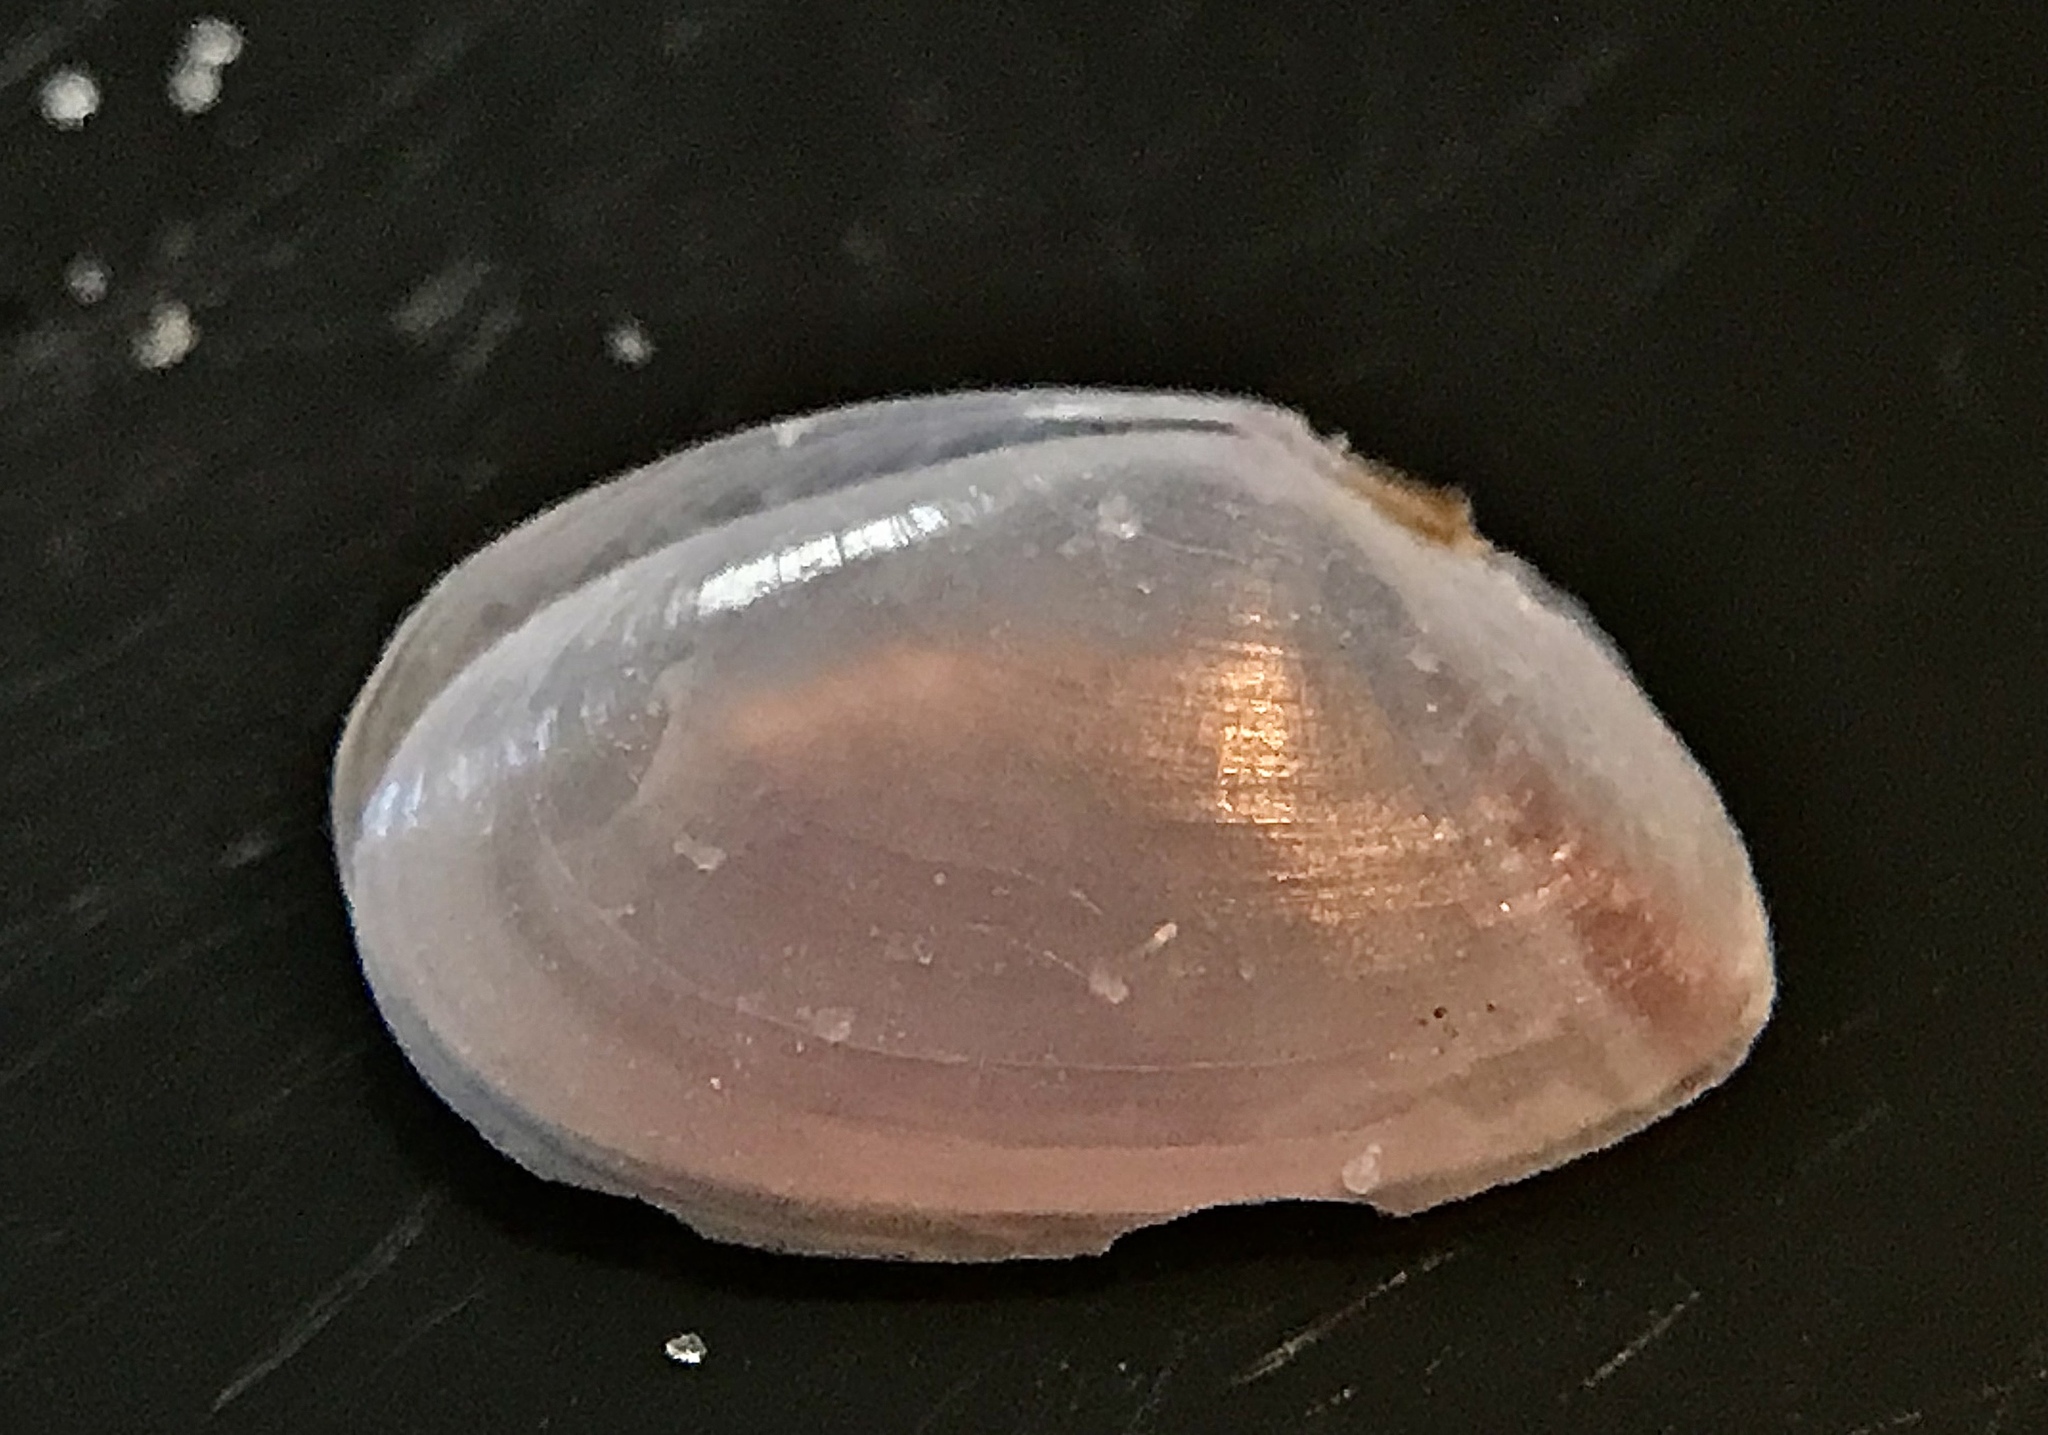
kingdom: Animalia
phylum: Mollusca
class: Bivalvia
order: Cardiida
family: Tellinidae
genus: Ameritella
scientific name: Ameritella versicolor
